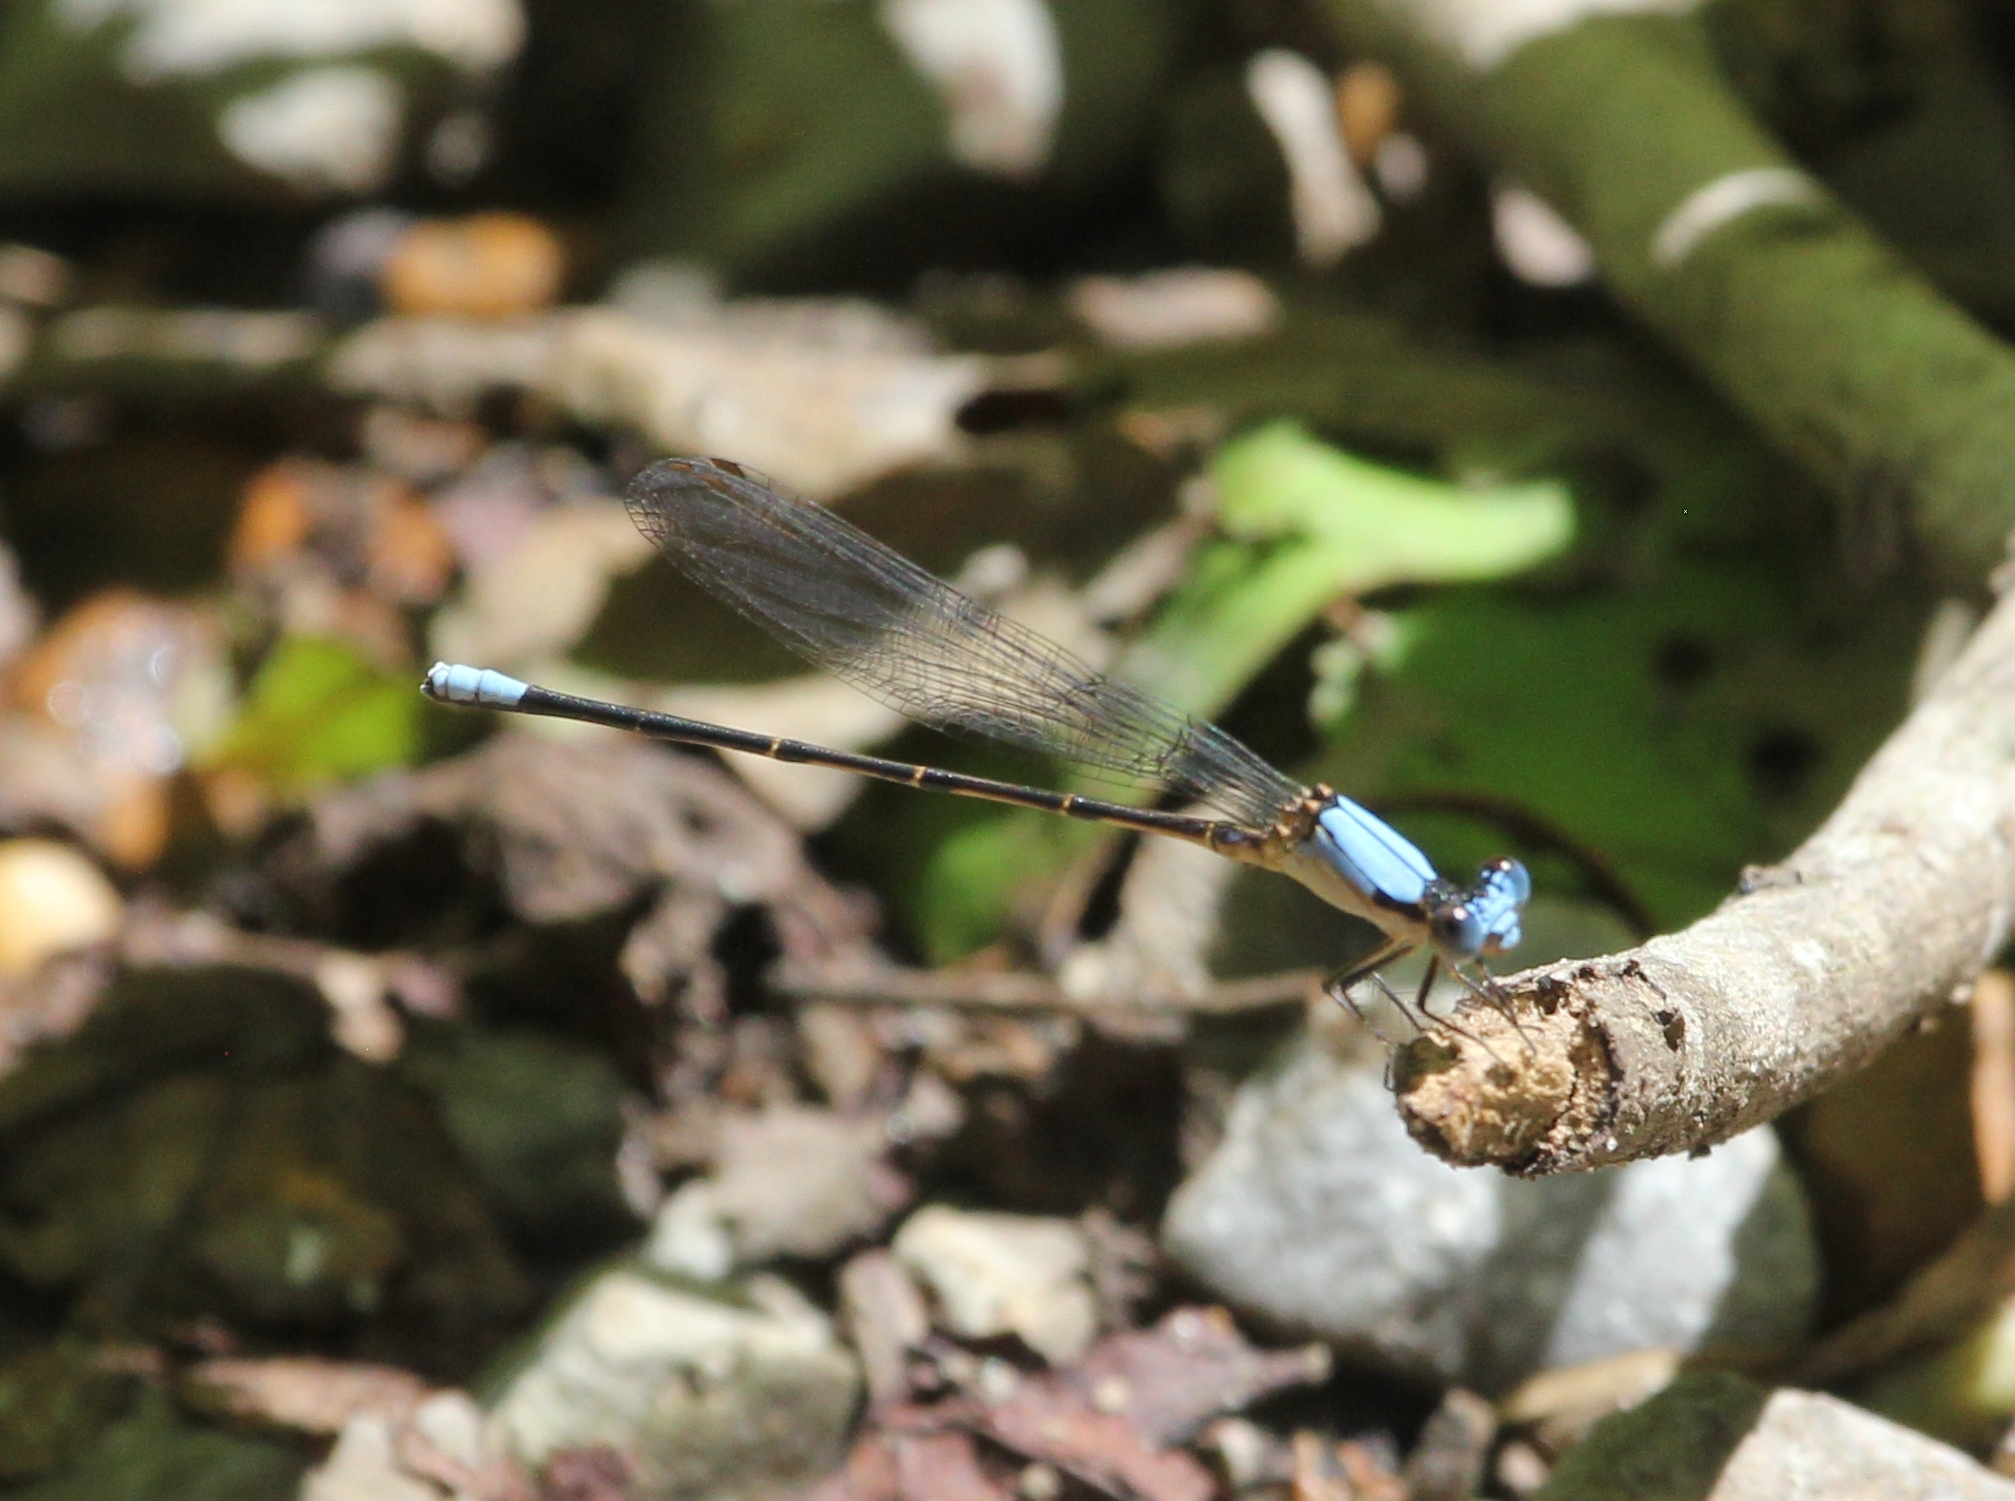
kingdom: Animalia
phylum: Arthropoda
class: Insecta
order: Odonata
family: Coenagrionidae
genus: Argia
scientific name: Argia apicalis
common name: Blue-fronted dancer
